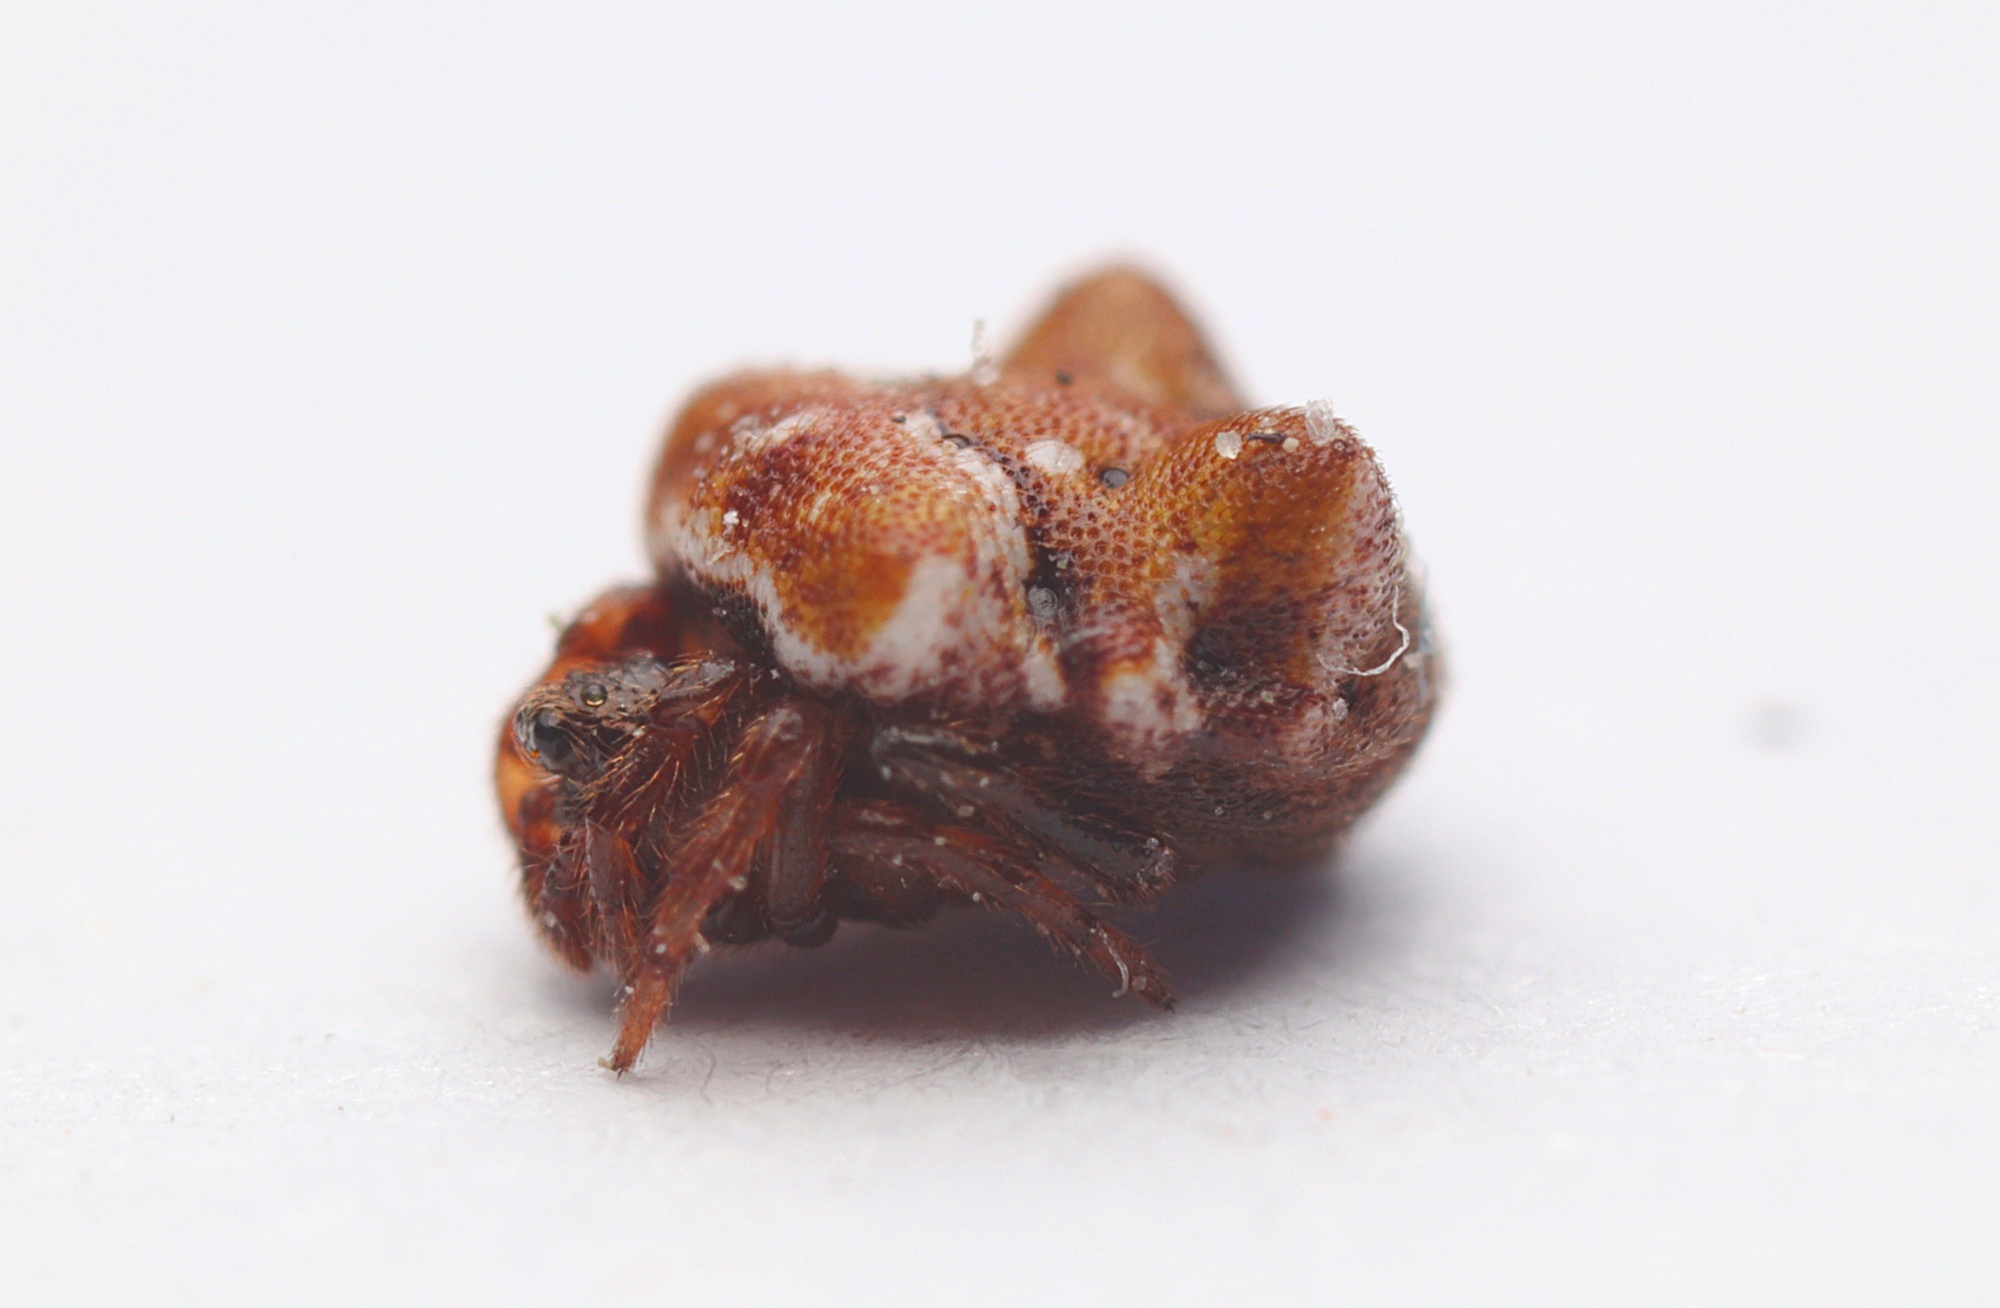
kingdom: Animalia
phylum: Arthropoda
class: Arachnida
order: Araneae
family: Theridiidae
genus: Phoroncidia
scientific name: Phoroncidia quadrata
